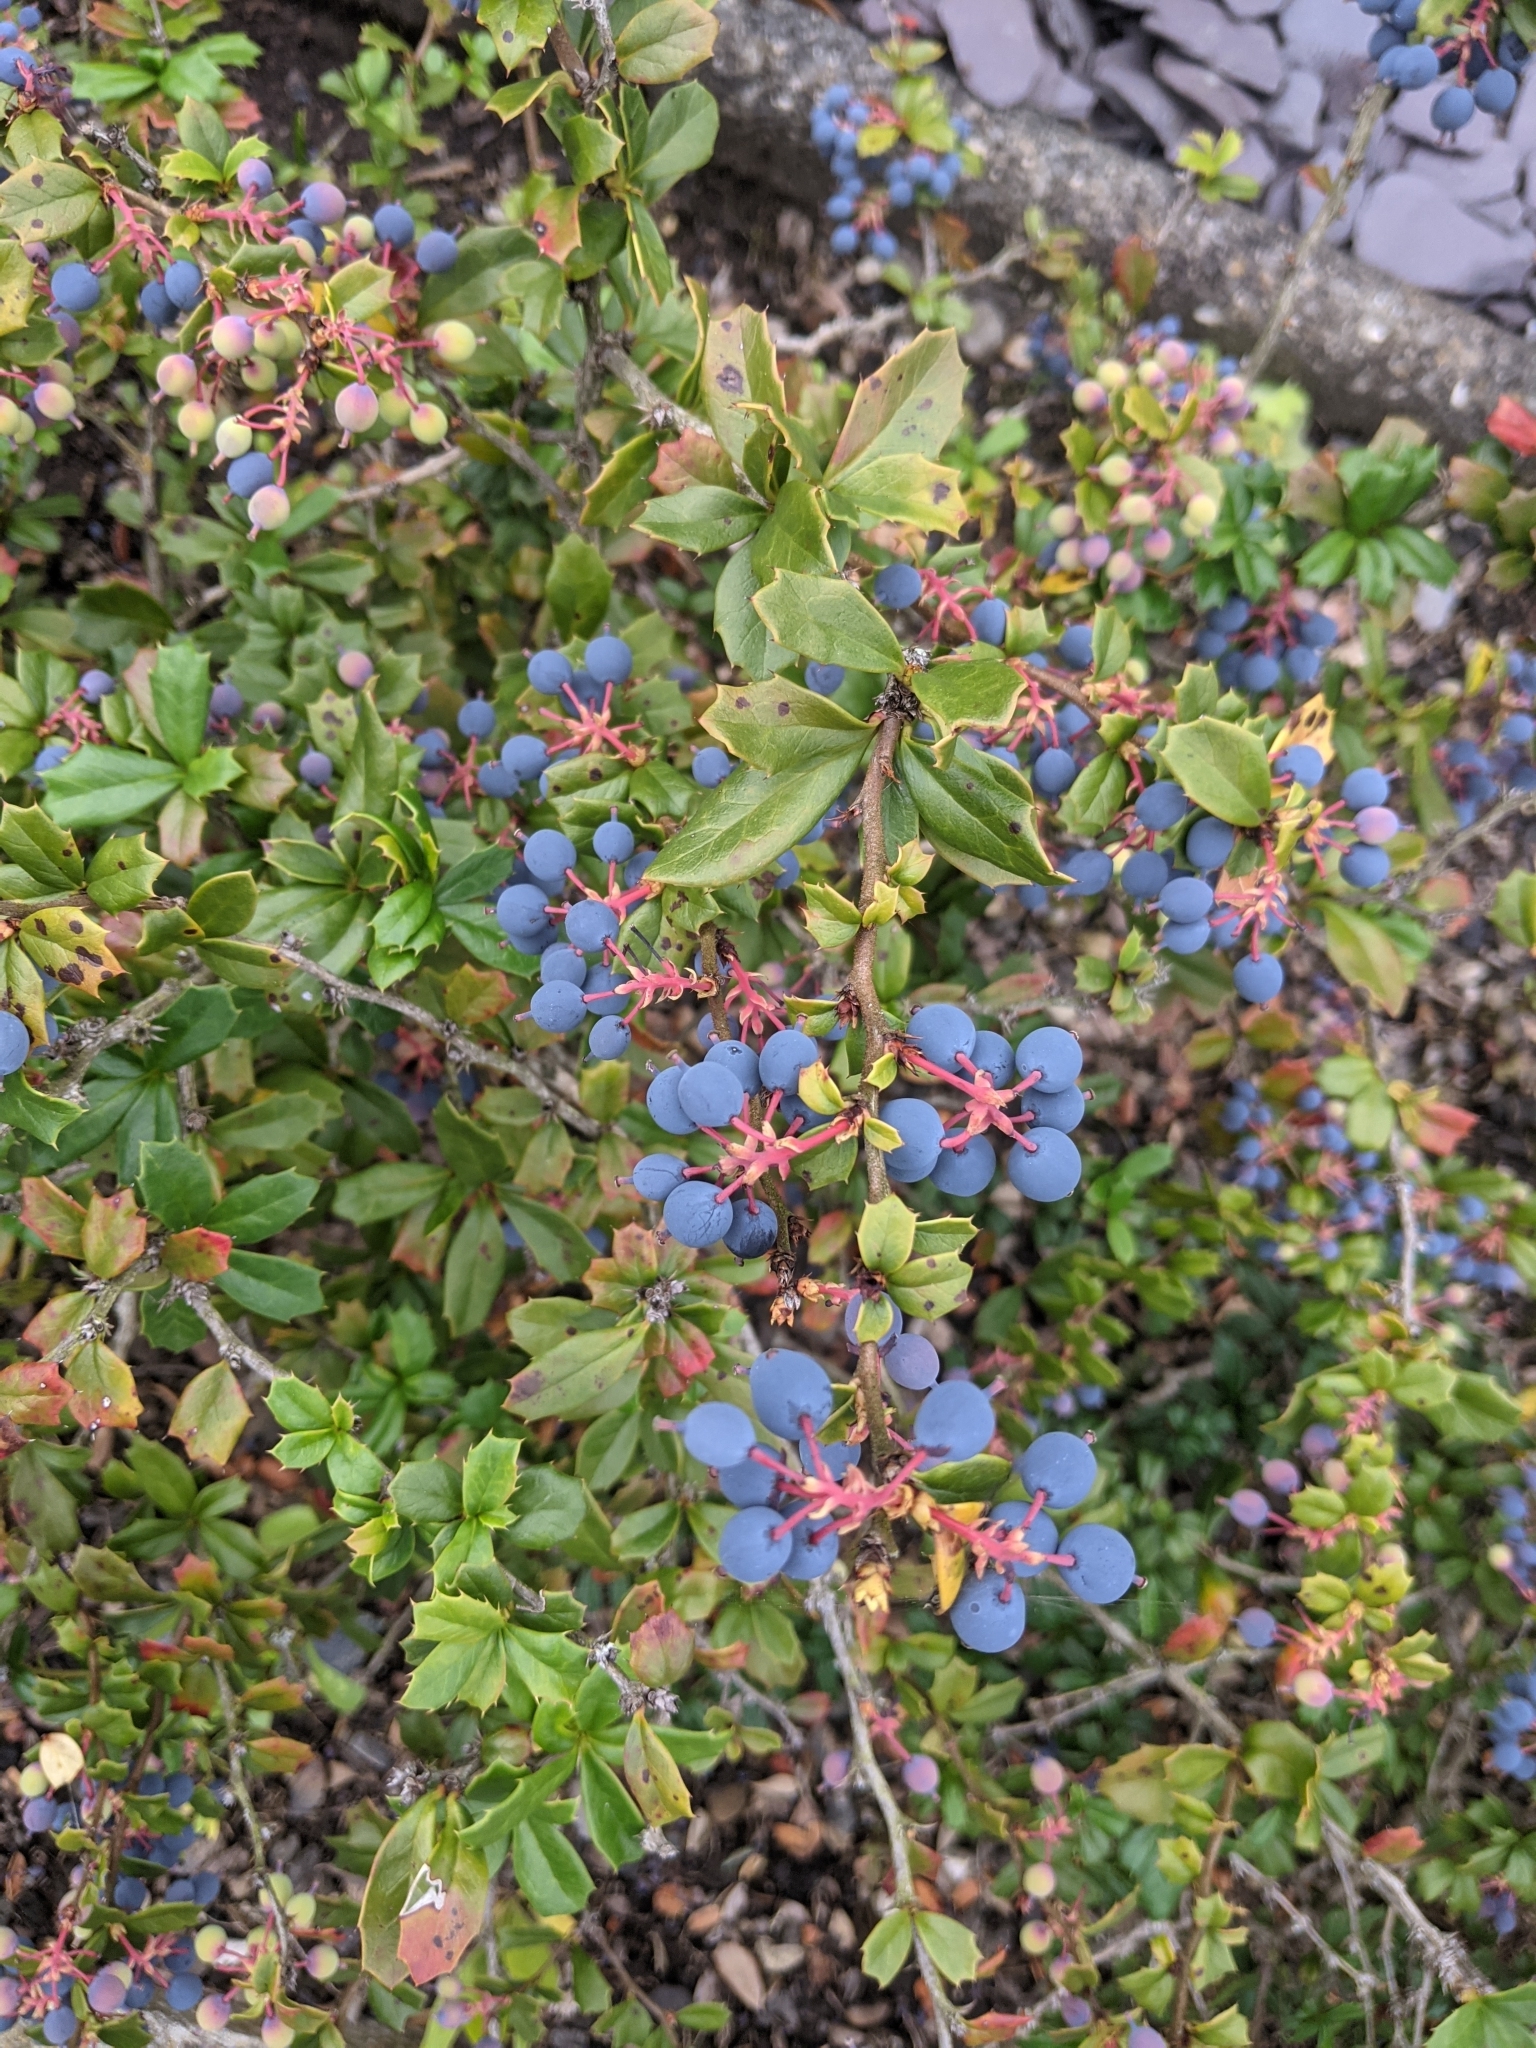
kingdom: Plantae
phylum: Tracheophyta
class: Magnoliopsida
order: Ranunculales
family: Berberidaceae
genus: Berberis
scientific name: Berberis darwinii
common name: Darwin's barberry
